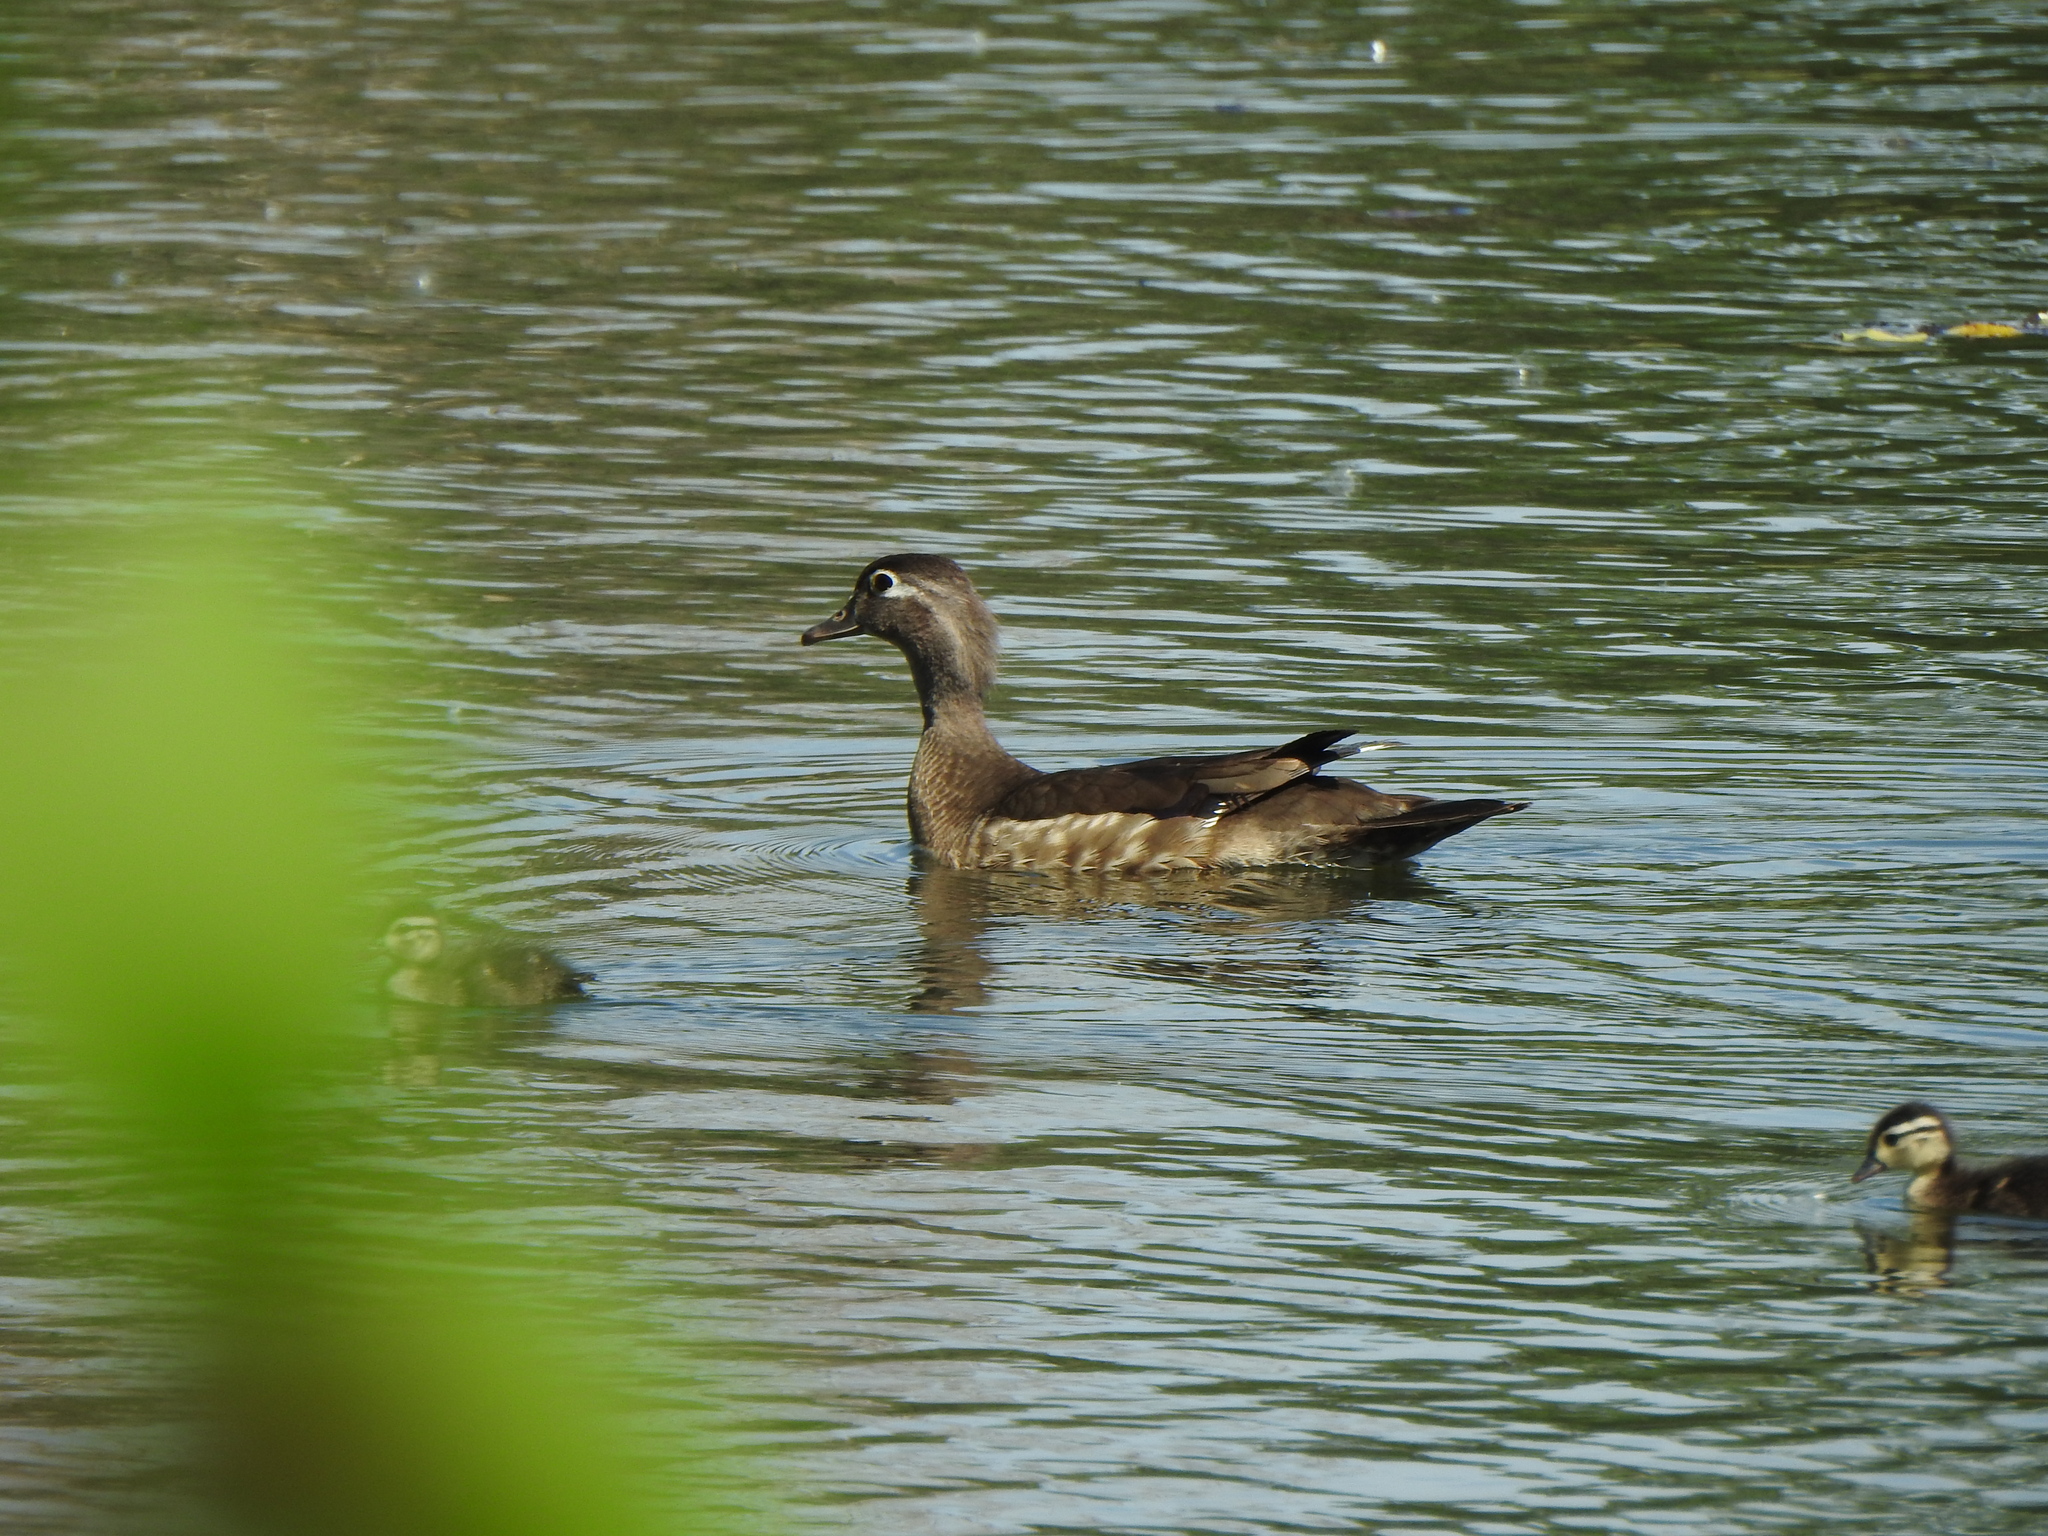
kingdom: Animalia
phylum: Chordata
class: Aves
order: Anseriformes
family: Anatidae
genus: Aix
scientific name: Aix sponsa
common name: Wood duck
